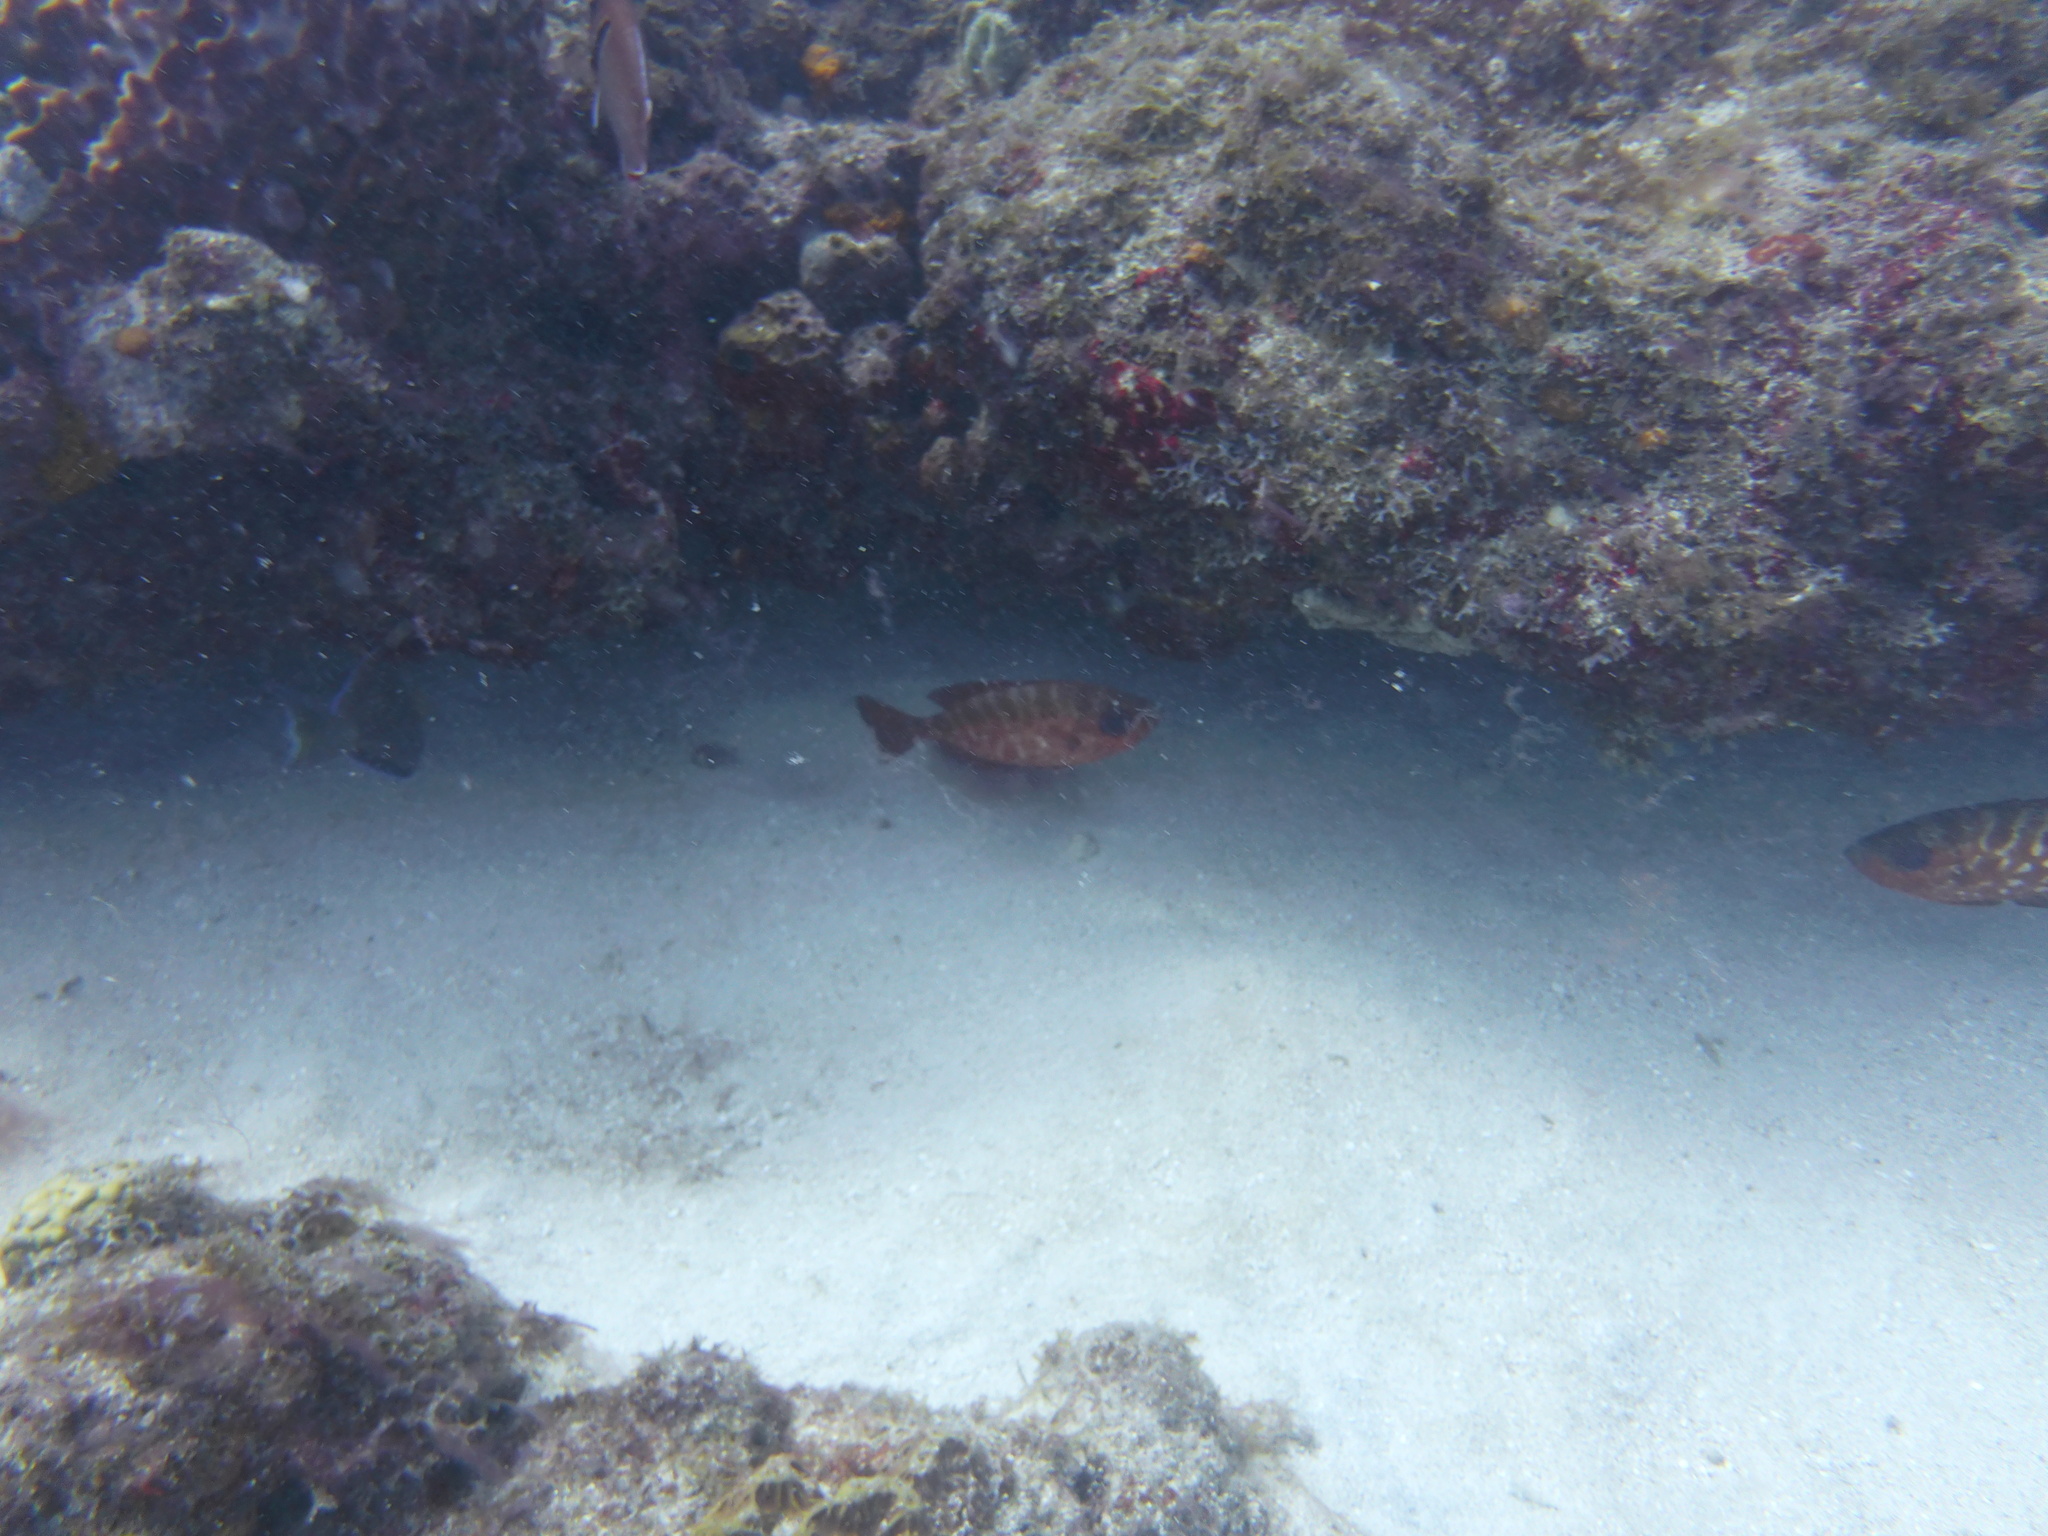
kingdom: Animalia
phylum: Chordata
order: Perciformes
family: Priacanthidae
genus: Heteropriacanthus
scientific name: Heteropriacanthus cruentatus
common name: Glasseye
